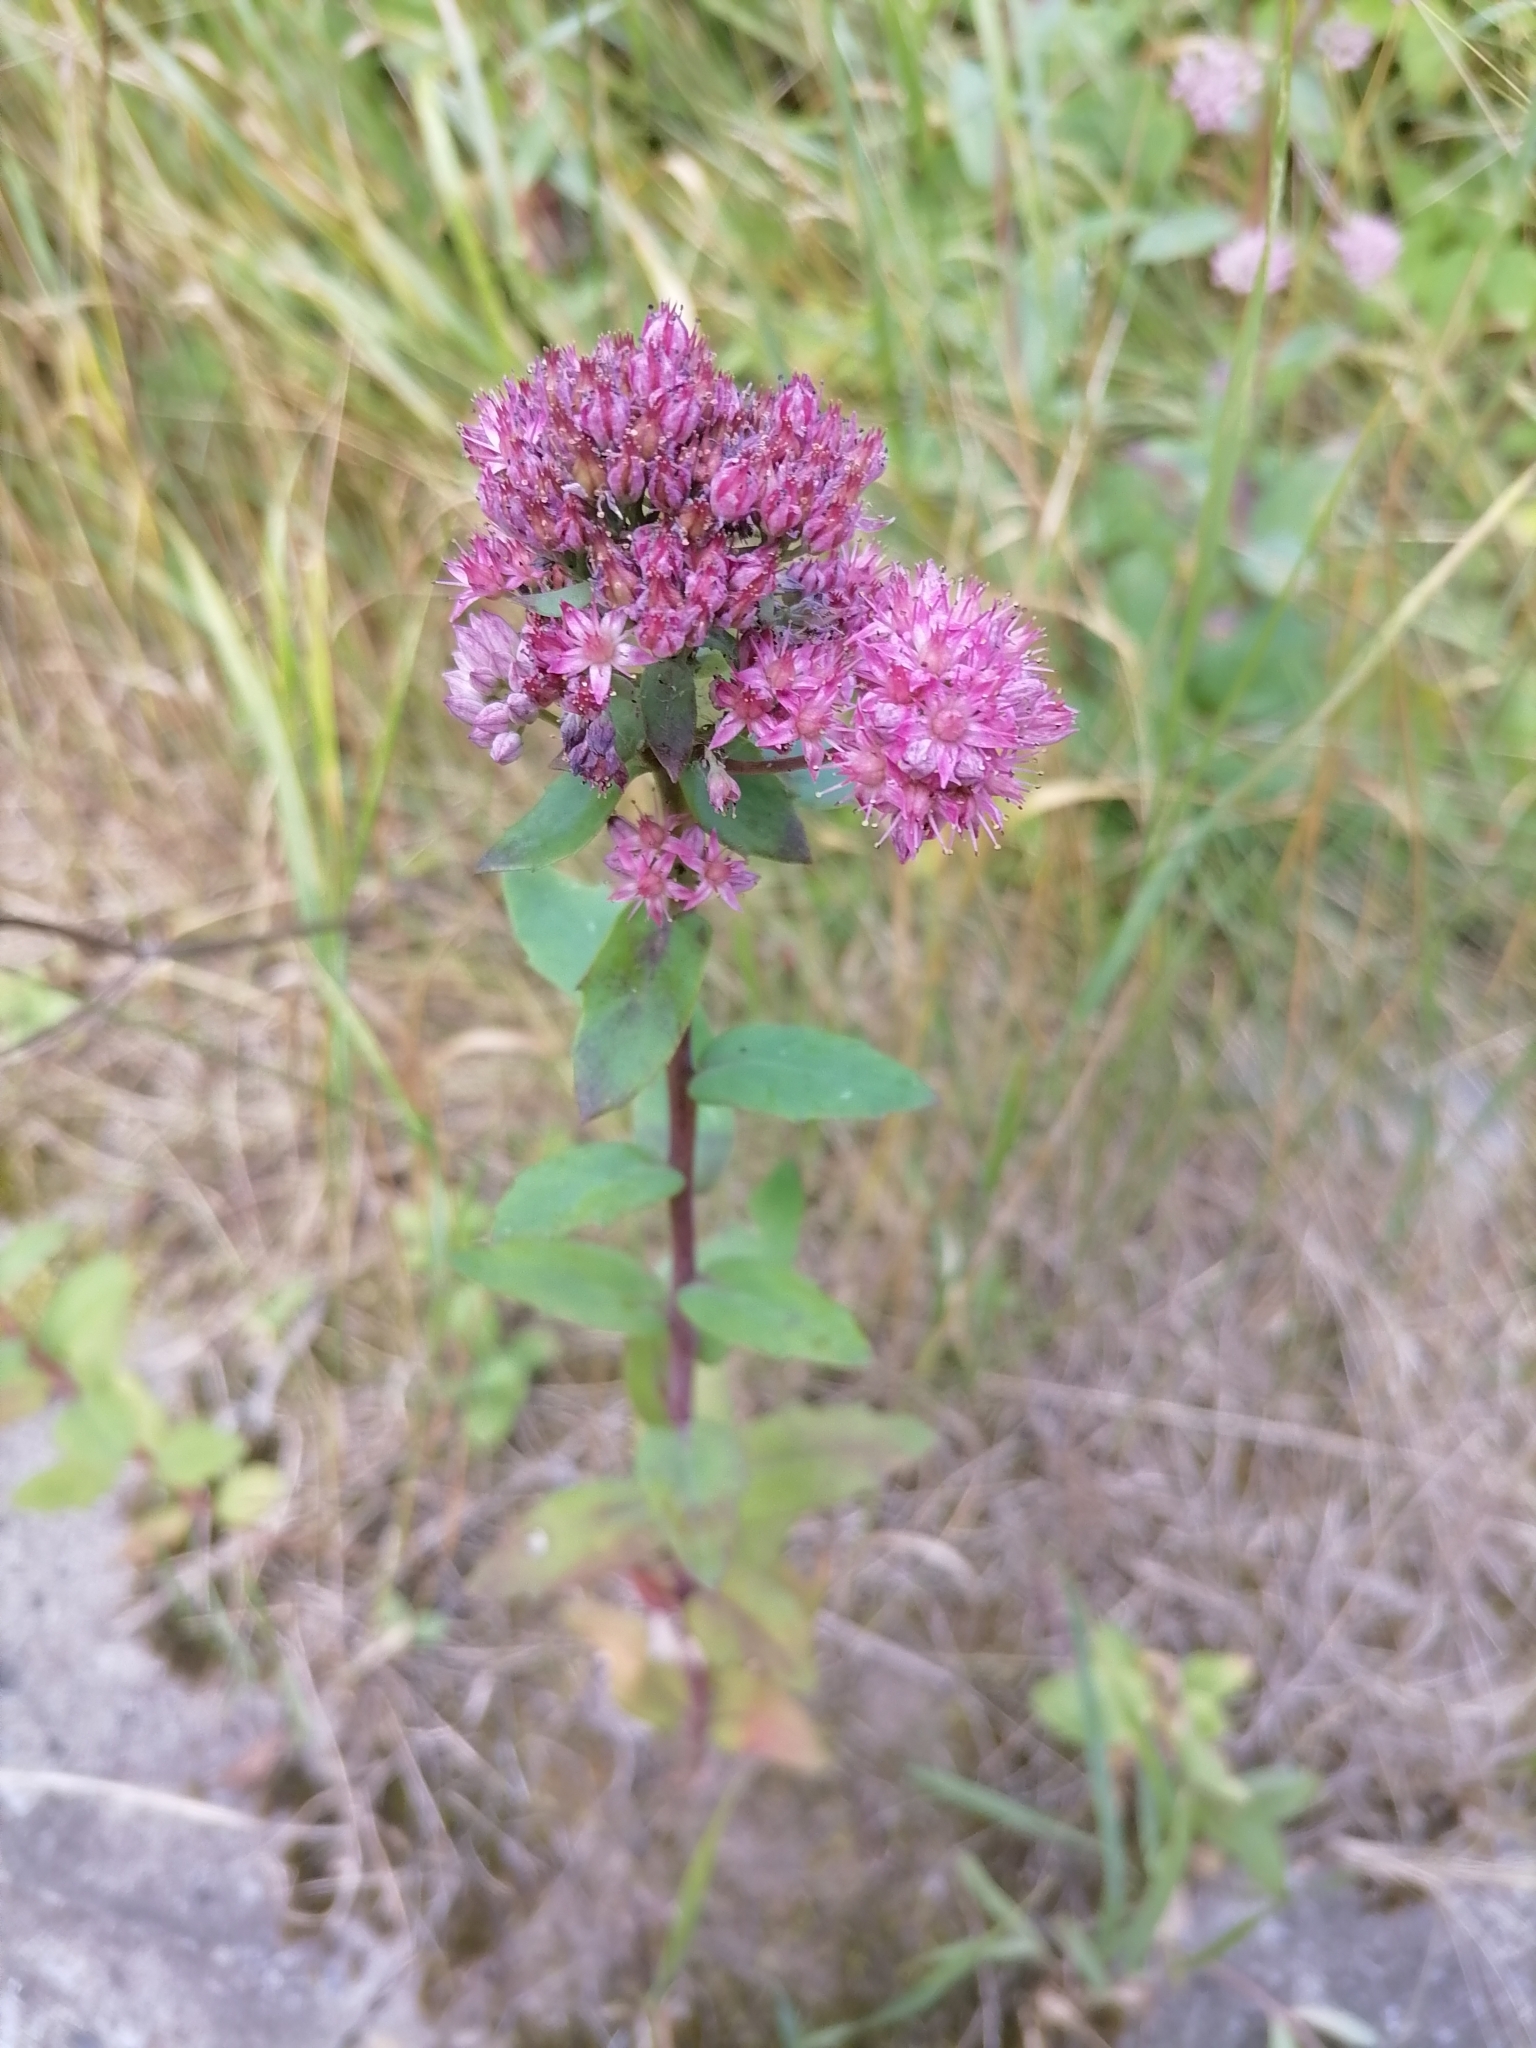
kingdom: Plantae
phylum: Tracheophyta
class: Magnoliopsida
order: Saxifragales
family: Crassulaceae
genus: Hylotelephium
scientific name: Hylotelephium telephium
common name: Live-forever
